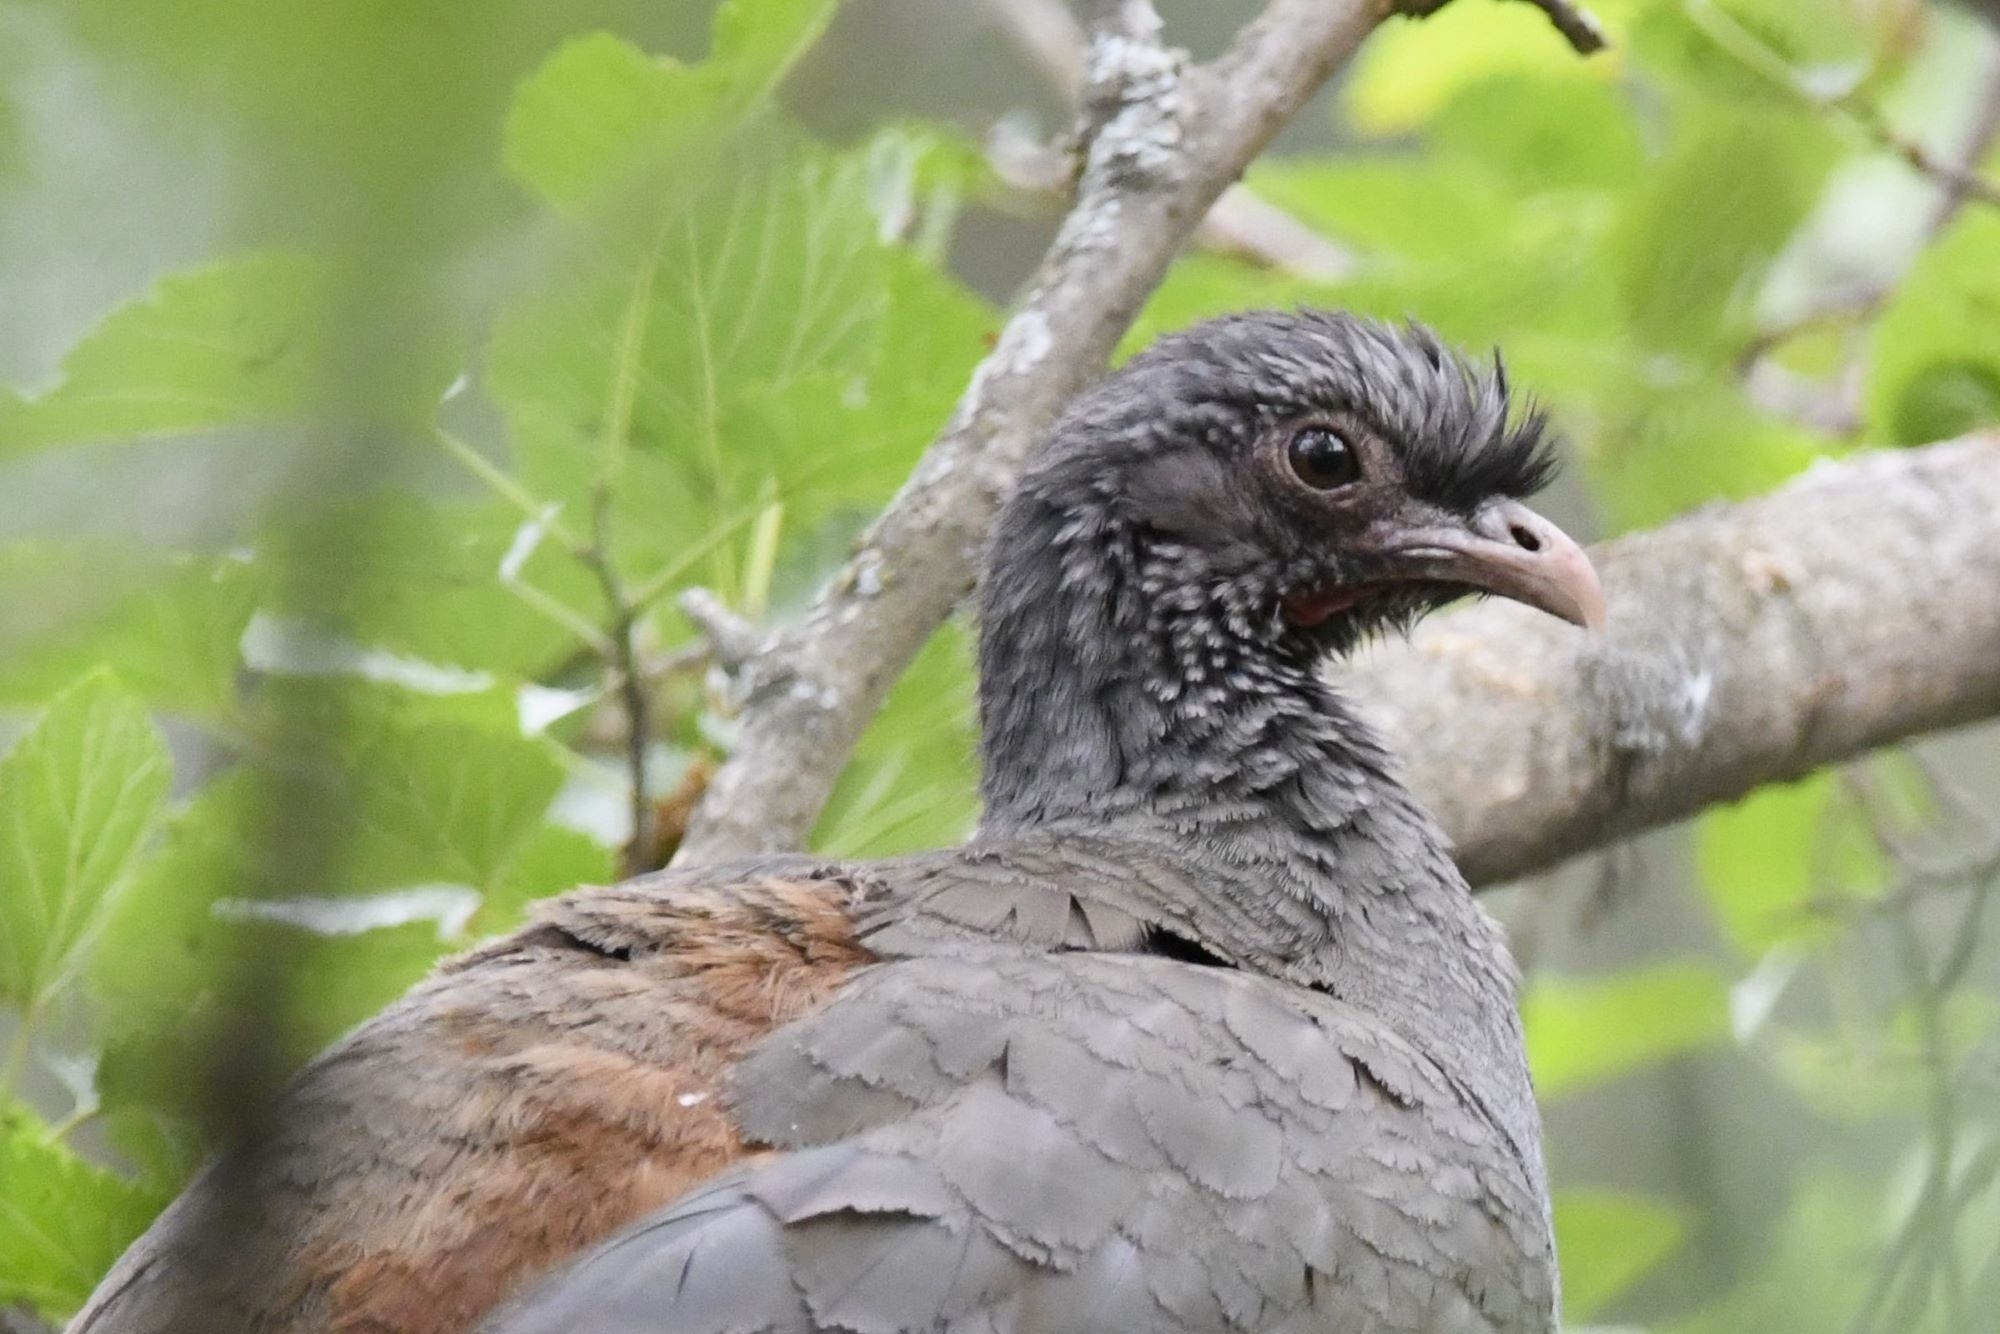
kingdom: Animalia
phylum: Chordata
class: Aves
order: Galliformes
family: Cracidae
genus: Ortalis
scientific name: Ortalis canicollis
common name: Chaco chachalaca
